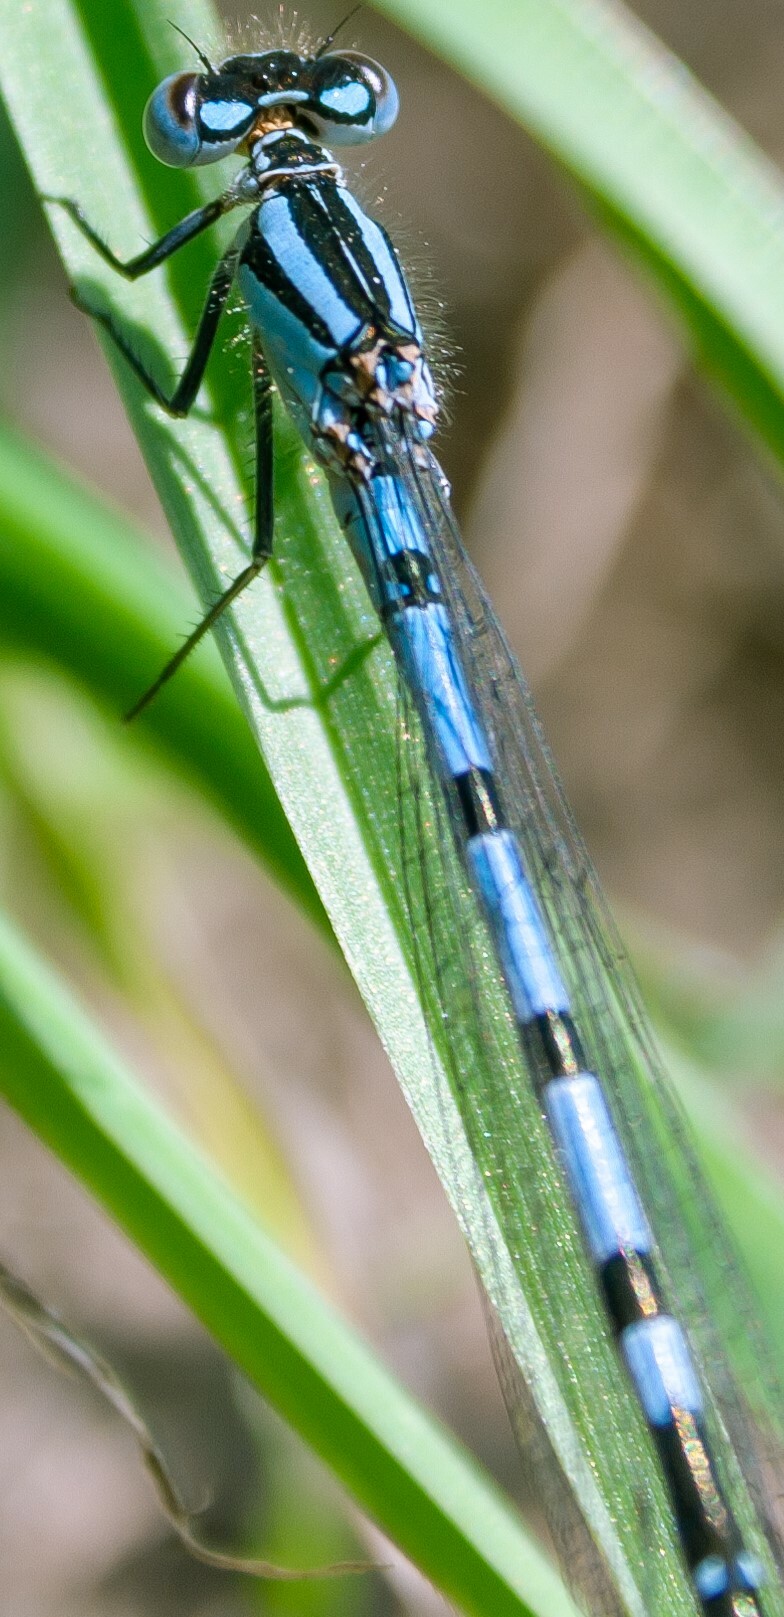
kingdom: Animalia
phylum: Arthropoda
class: Insecta
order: Odonata
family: Coenagrionidae
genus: Enallagma
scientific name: Enallagma cyathigerum
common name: Common blue damselfly
